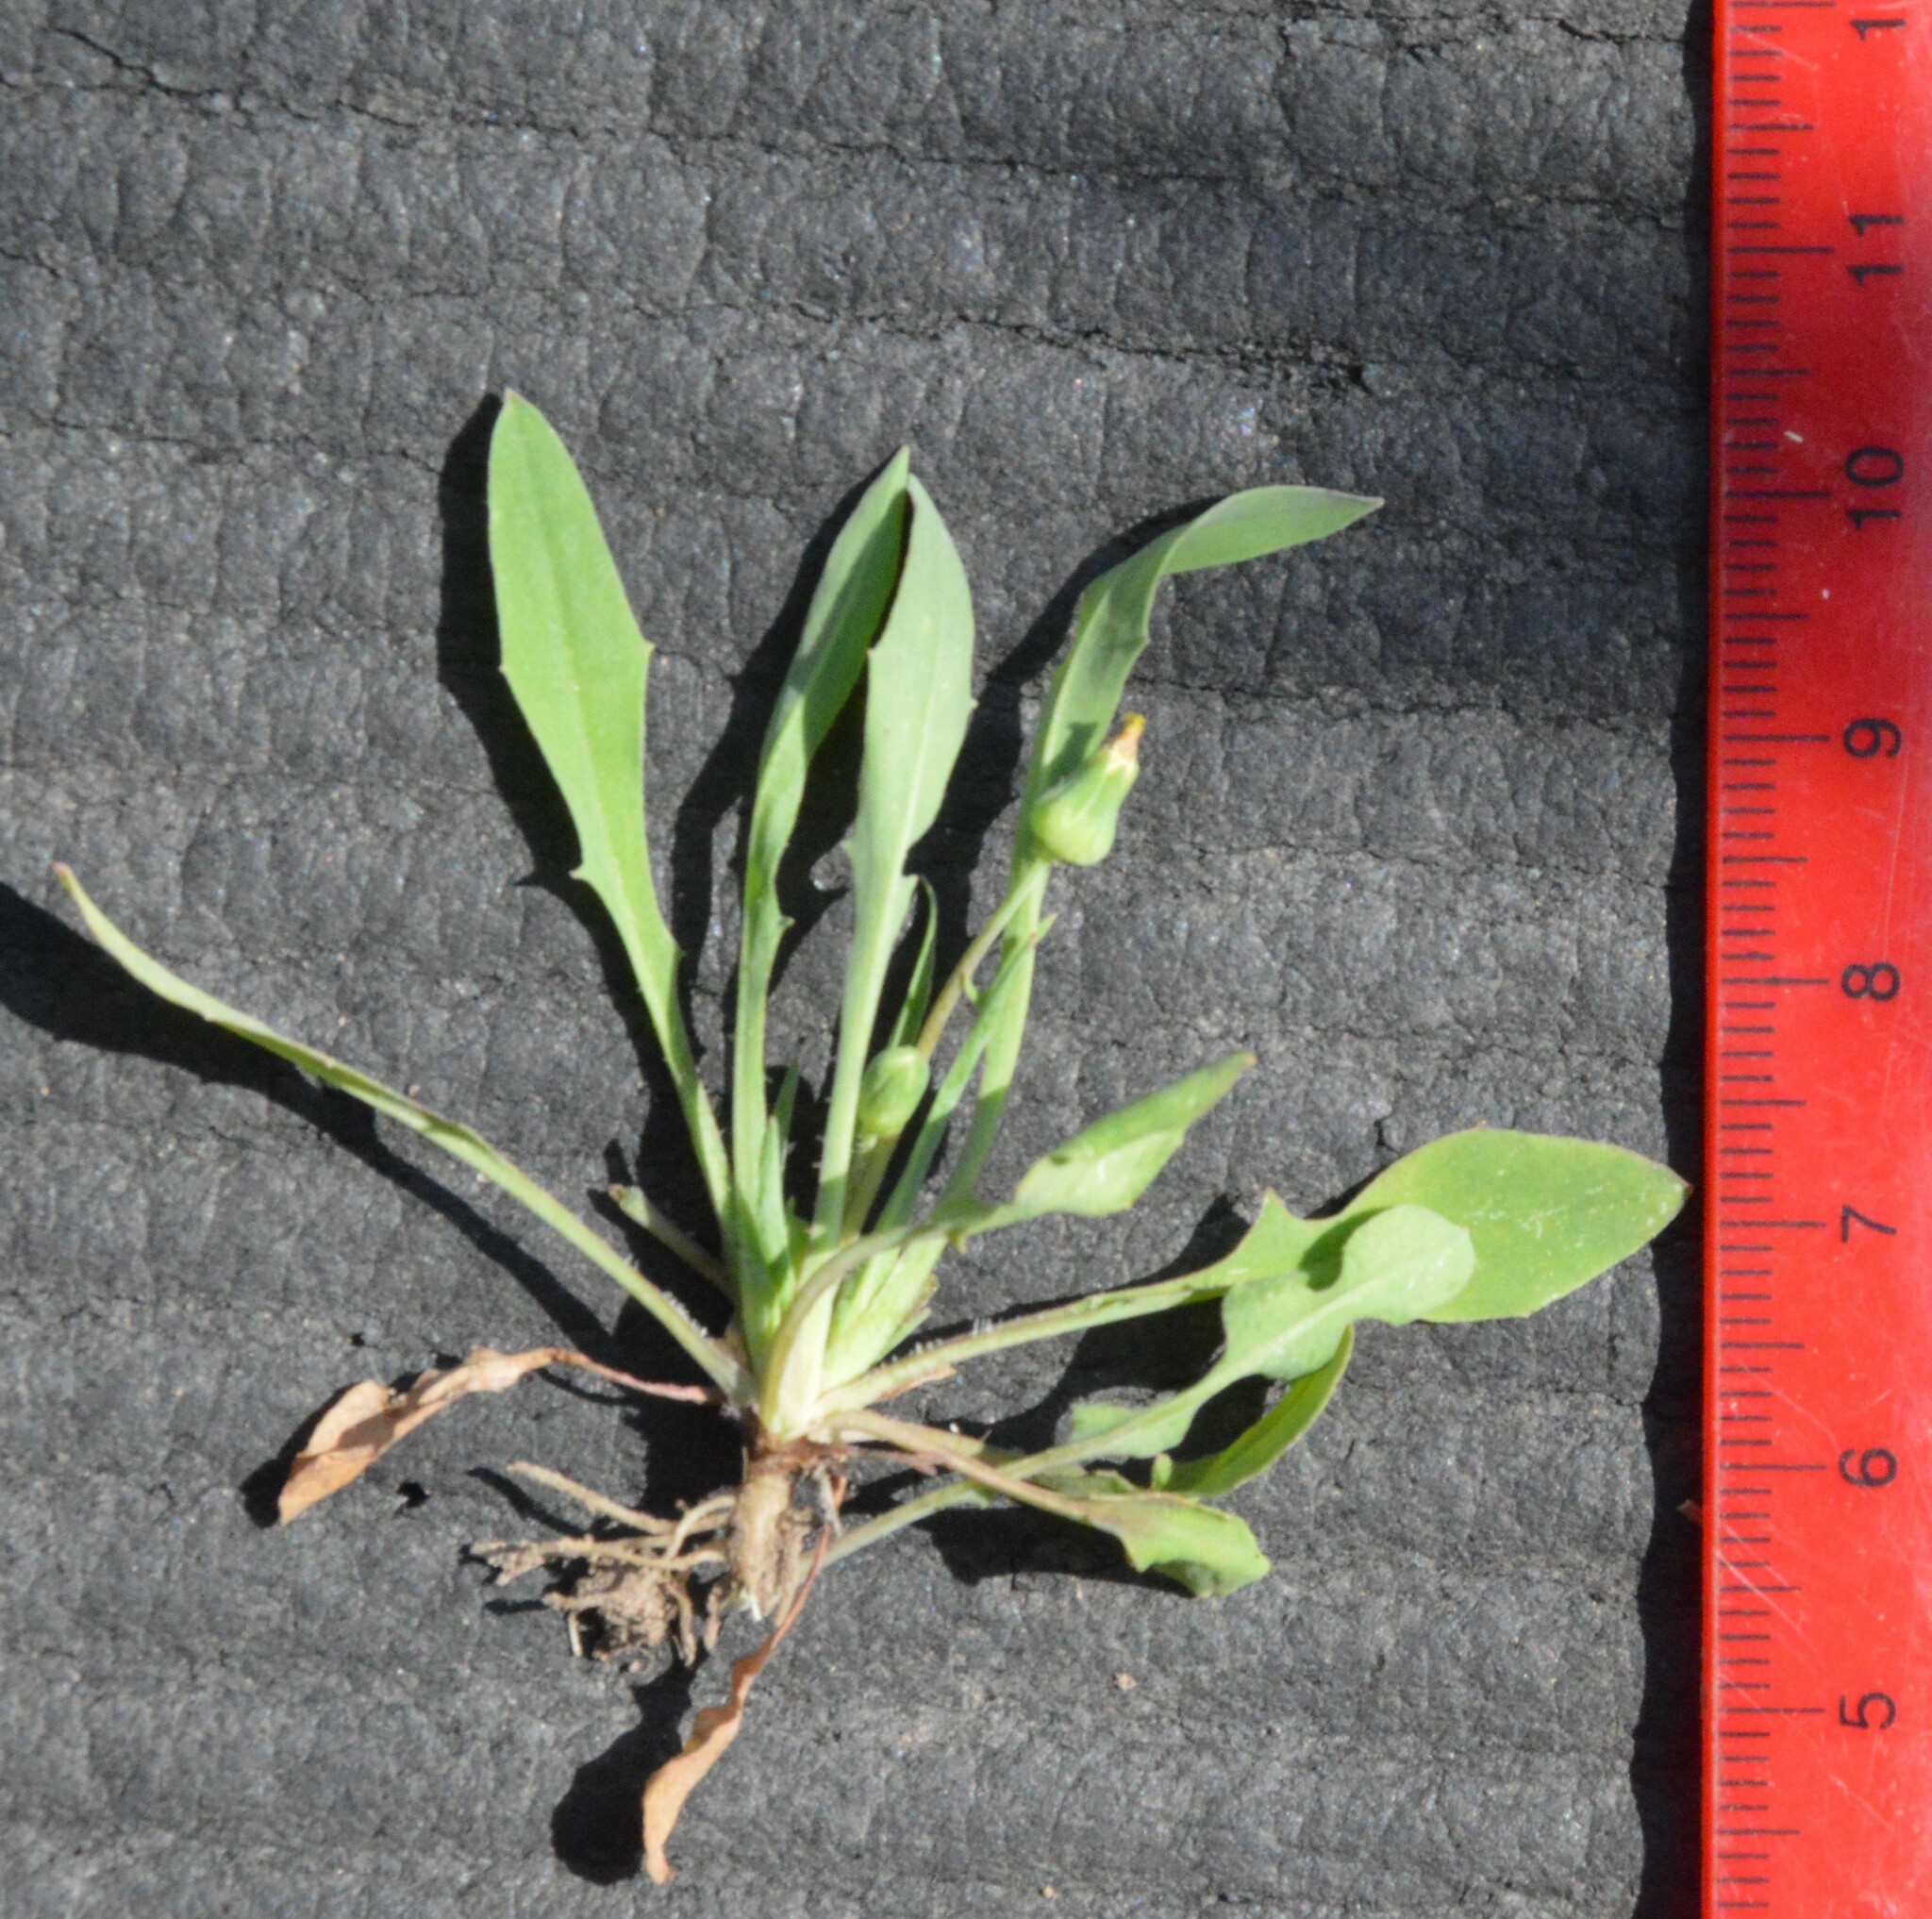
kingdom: Plantae
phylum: Tracheophyta
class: Magnoliopsida
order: Asterales
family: Asteraceae
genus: Krigia
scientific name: Krigia cespitosa
